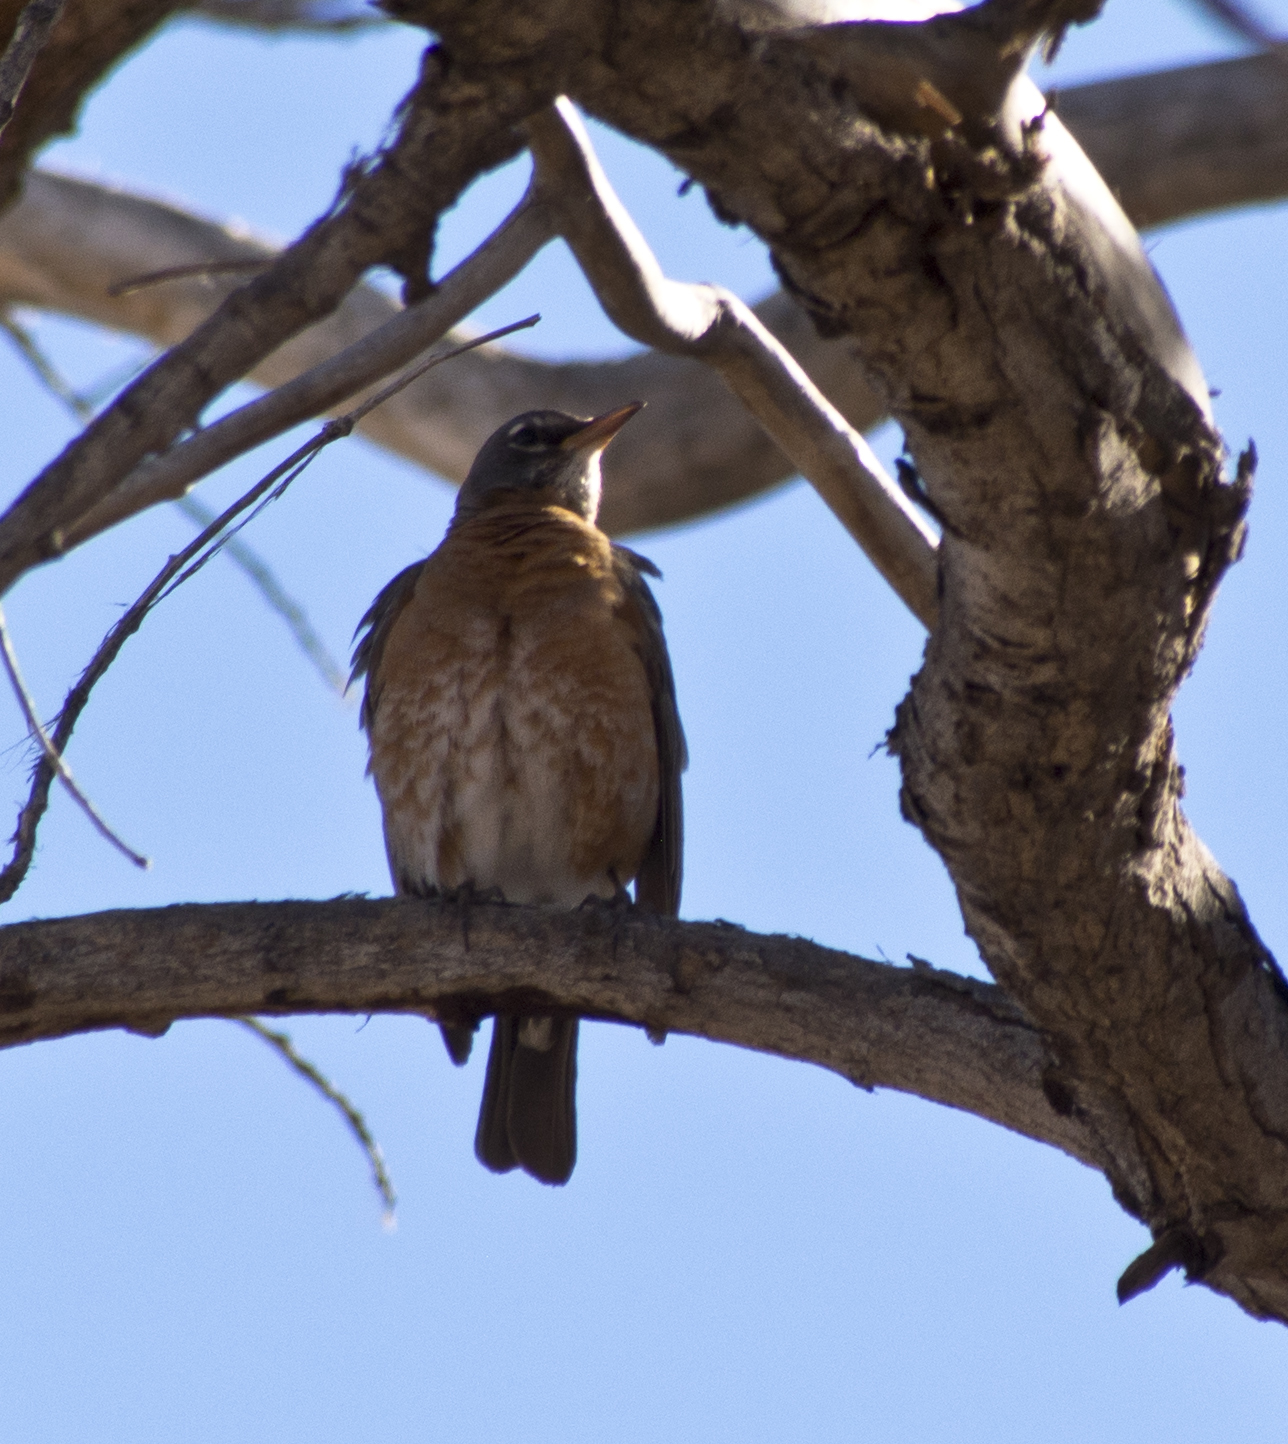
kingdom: Animalia
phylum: Chordata
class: Aves
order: Passeriformes
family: Turdidae
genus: Turdus
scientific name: Turdus migratorius
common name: American robin
